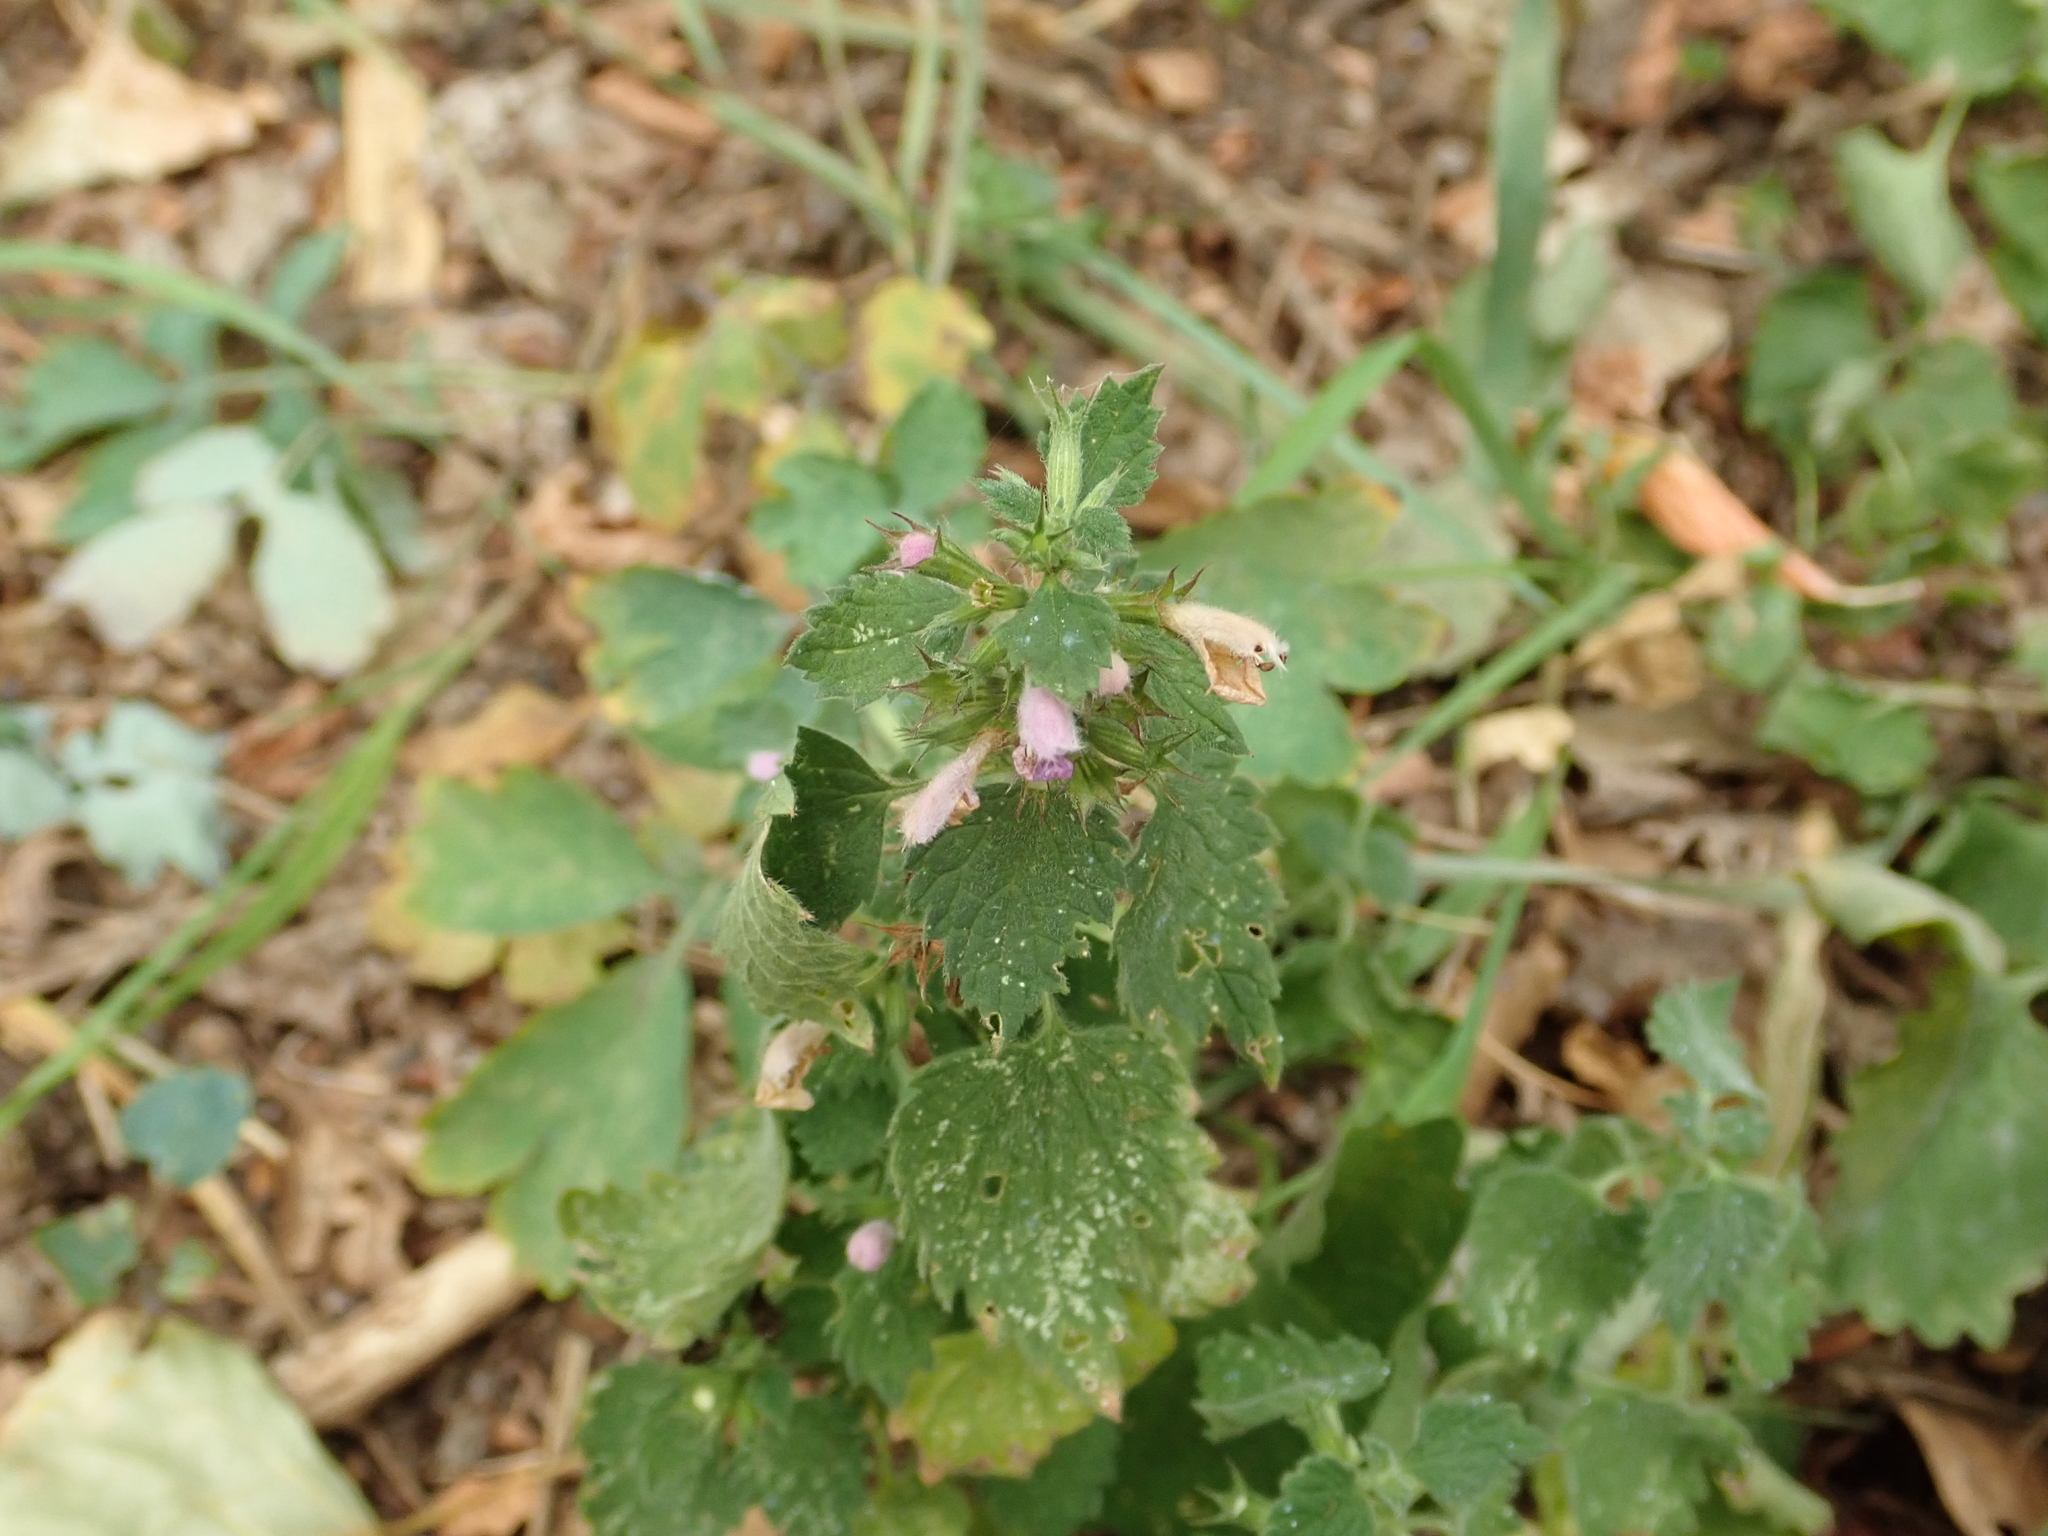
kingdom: Plantae
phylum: Tracheophyta
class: Magnoliopsida
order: Lamiales
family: Lamiaceae
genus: Ballota
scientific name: Ballota nigra
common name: Black horehound
